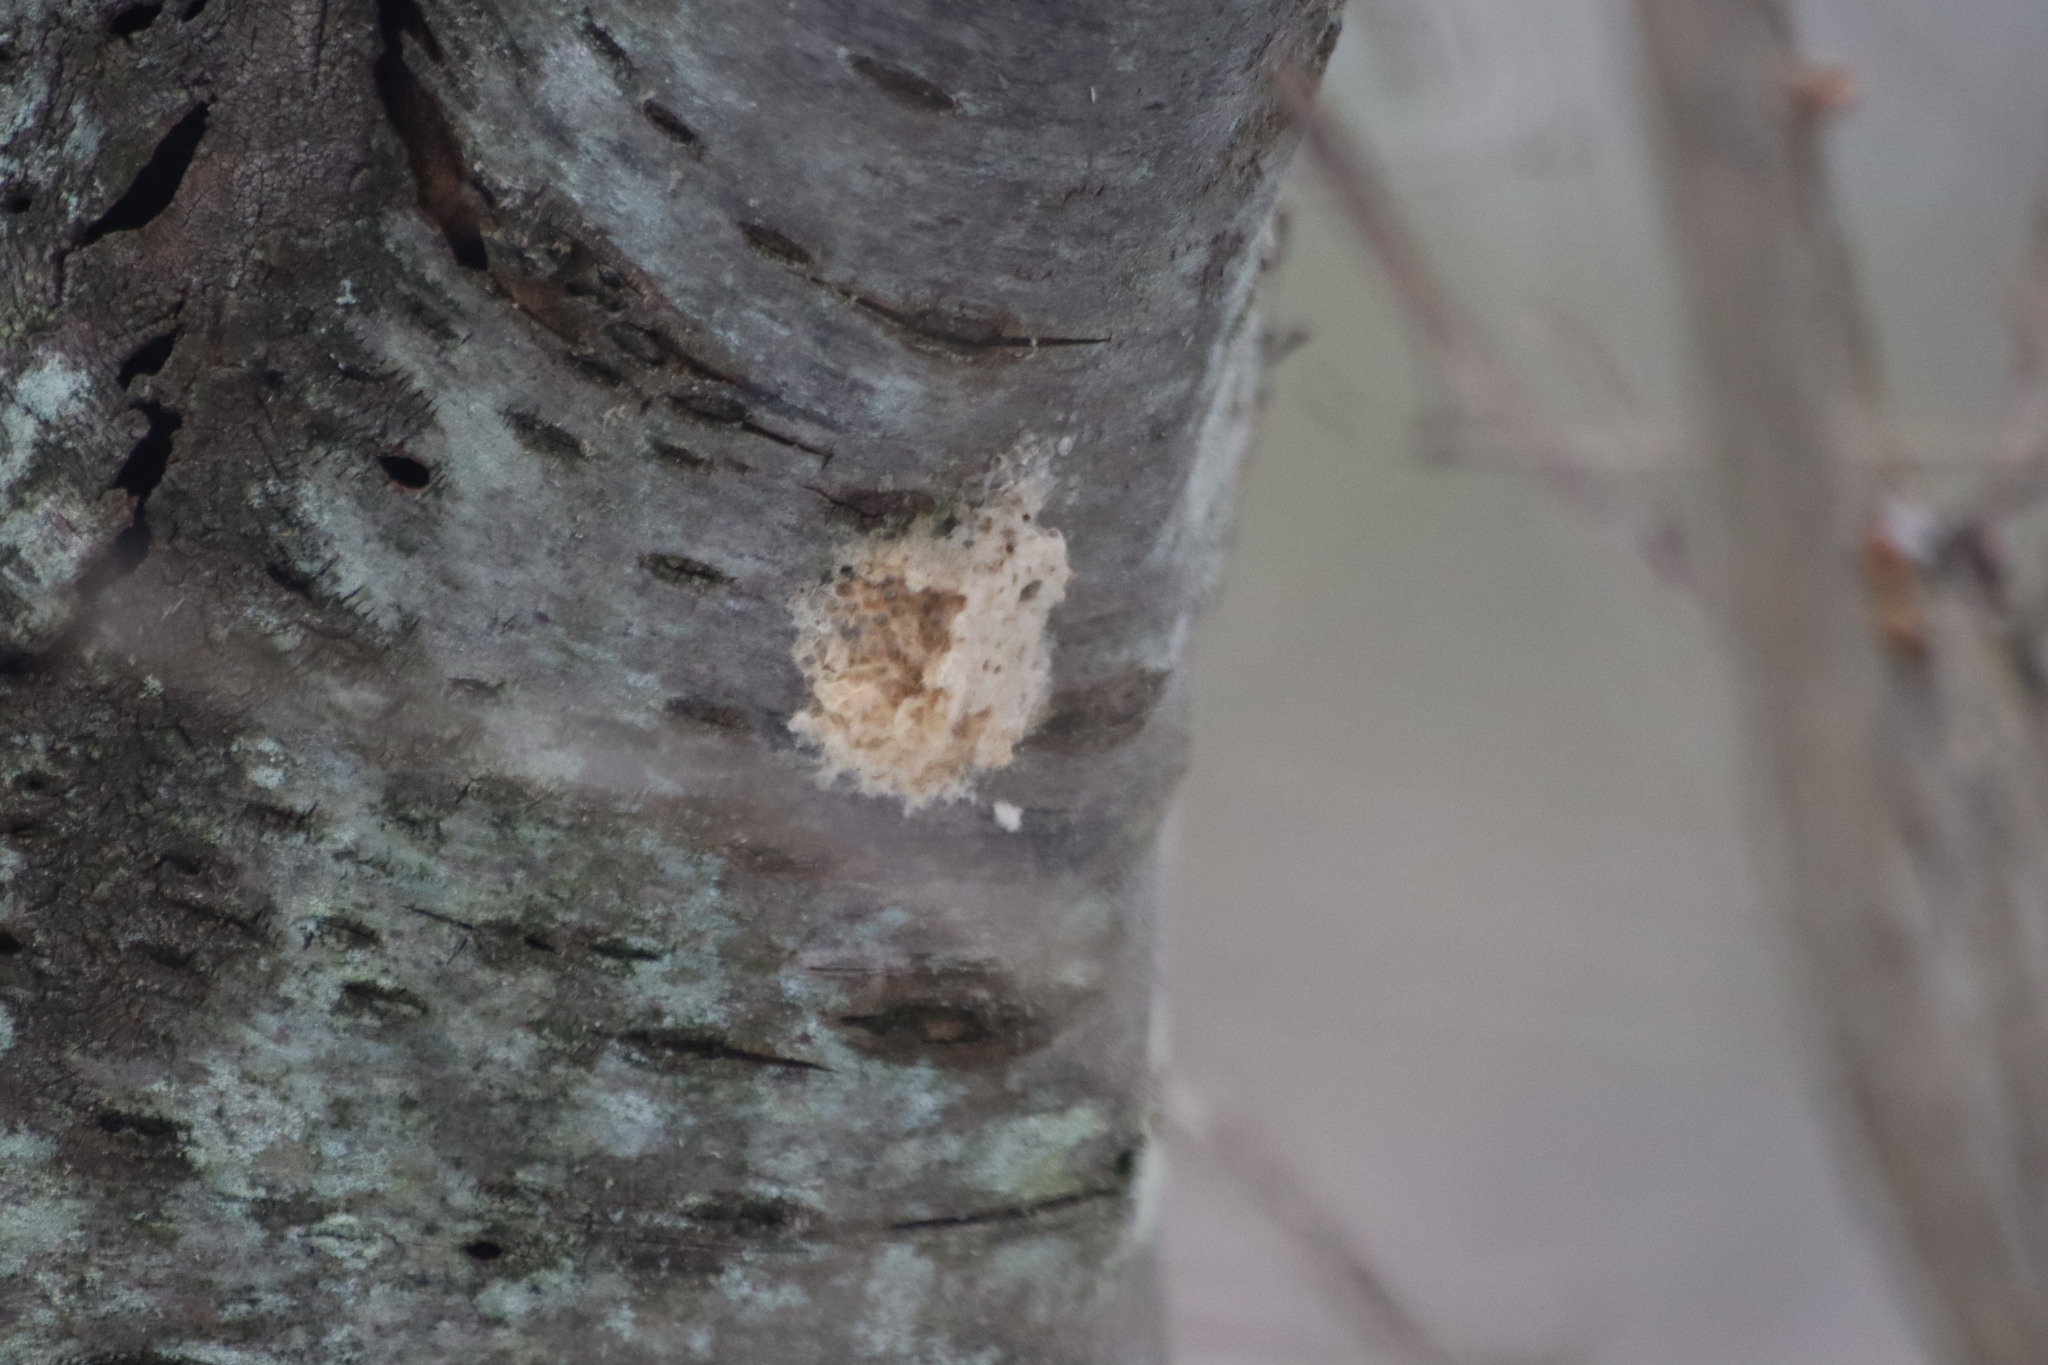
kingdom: Animalia
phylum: Arthropoda
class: Insecta
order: Lepidoptera
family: Erebidae
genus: Lymantria
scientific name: Lymantria dispar
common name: Gypsy moth
